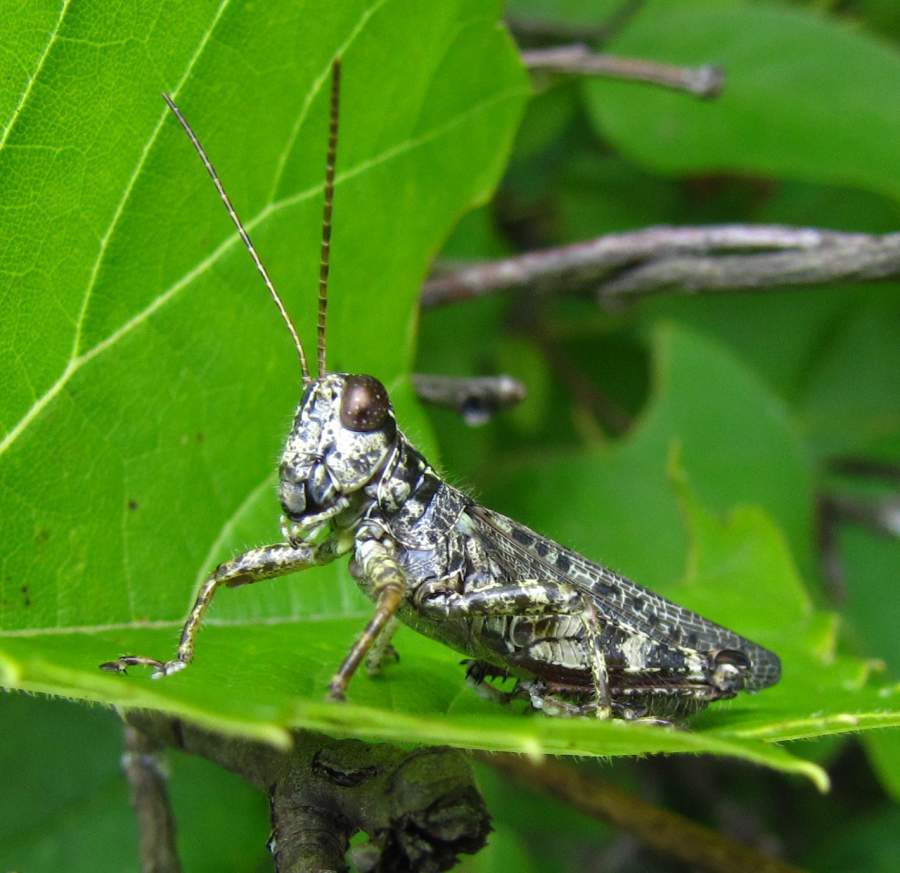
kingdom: Animalia
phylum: Arthropoda
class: Insecta
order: Orthoptera
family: Acrididae
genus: Melanoplus
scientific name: Melanoplus punctulatus
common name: Pine-tree spur-throat grasshopper
